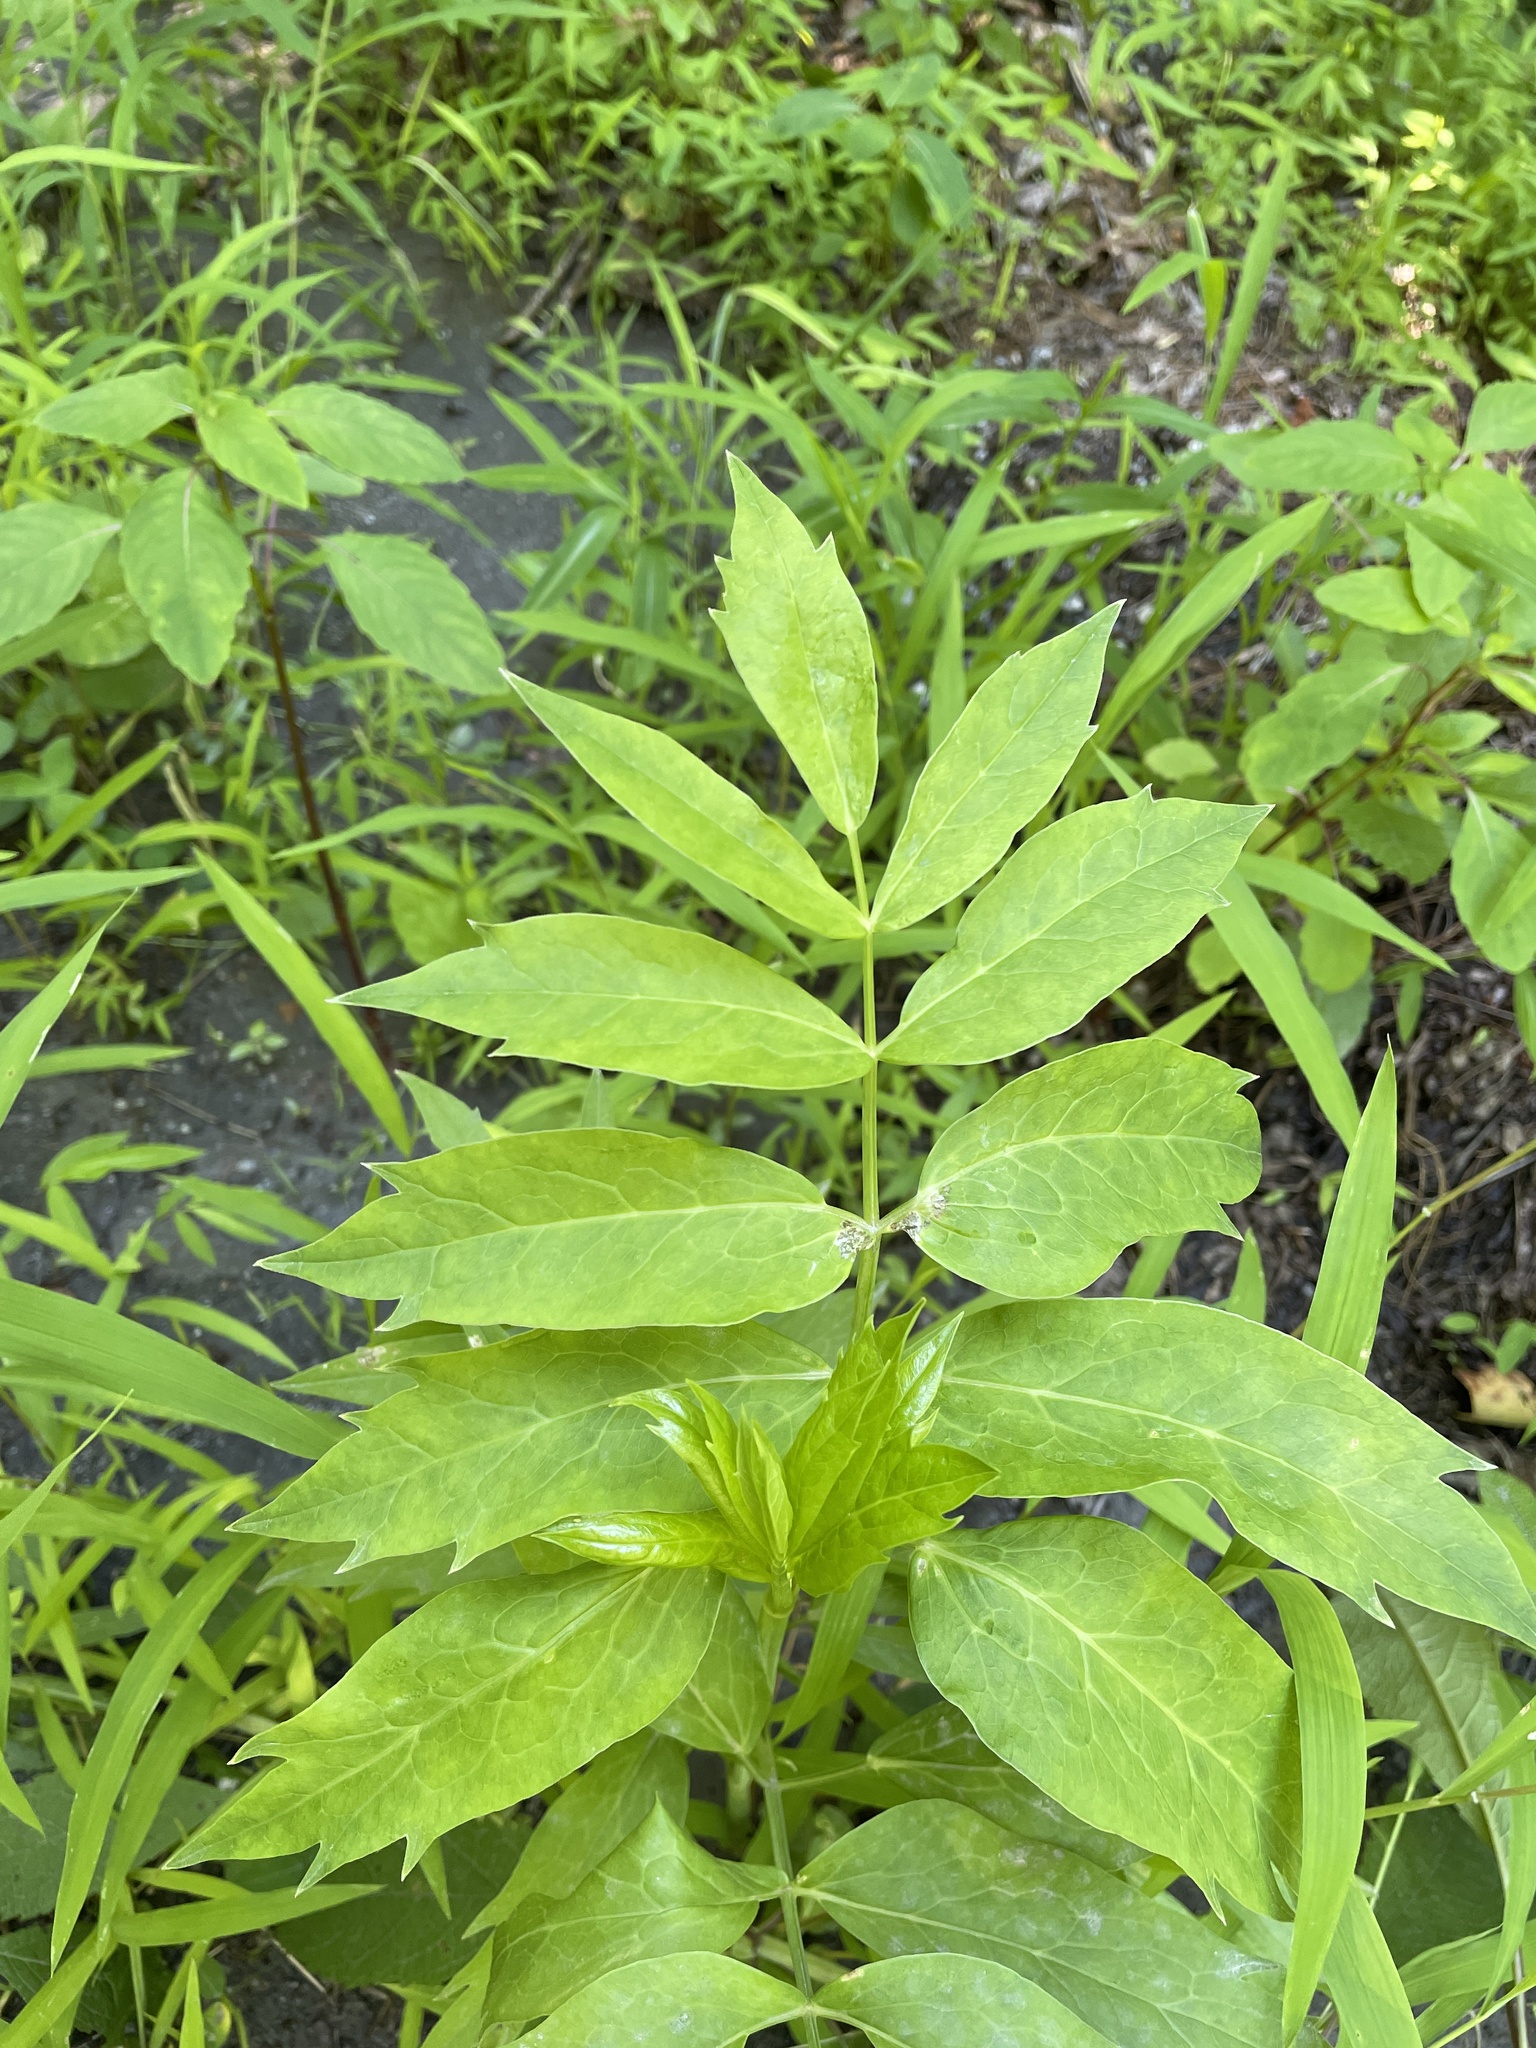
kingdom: Plantae
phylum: Tracheophyta
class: Magnoliopsida
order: Apiales
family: Apiaceae
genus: Oxypolis
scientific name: Oxypolis rigidior
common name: Cowbane
